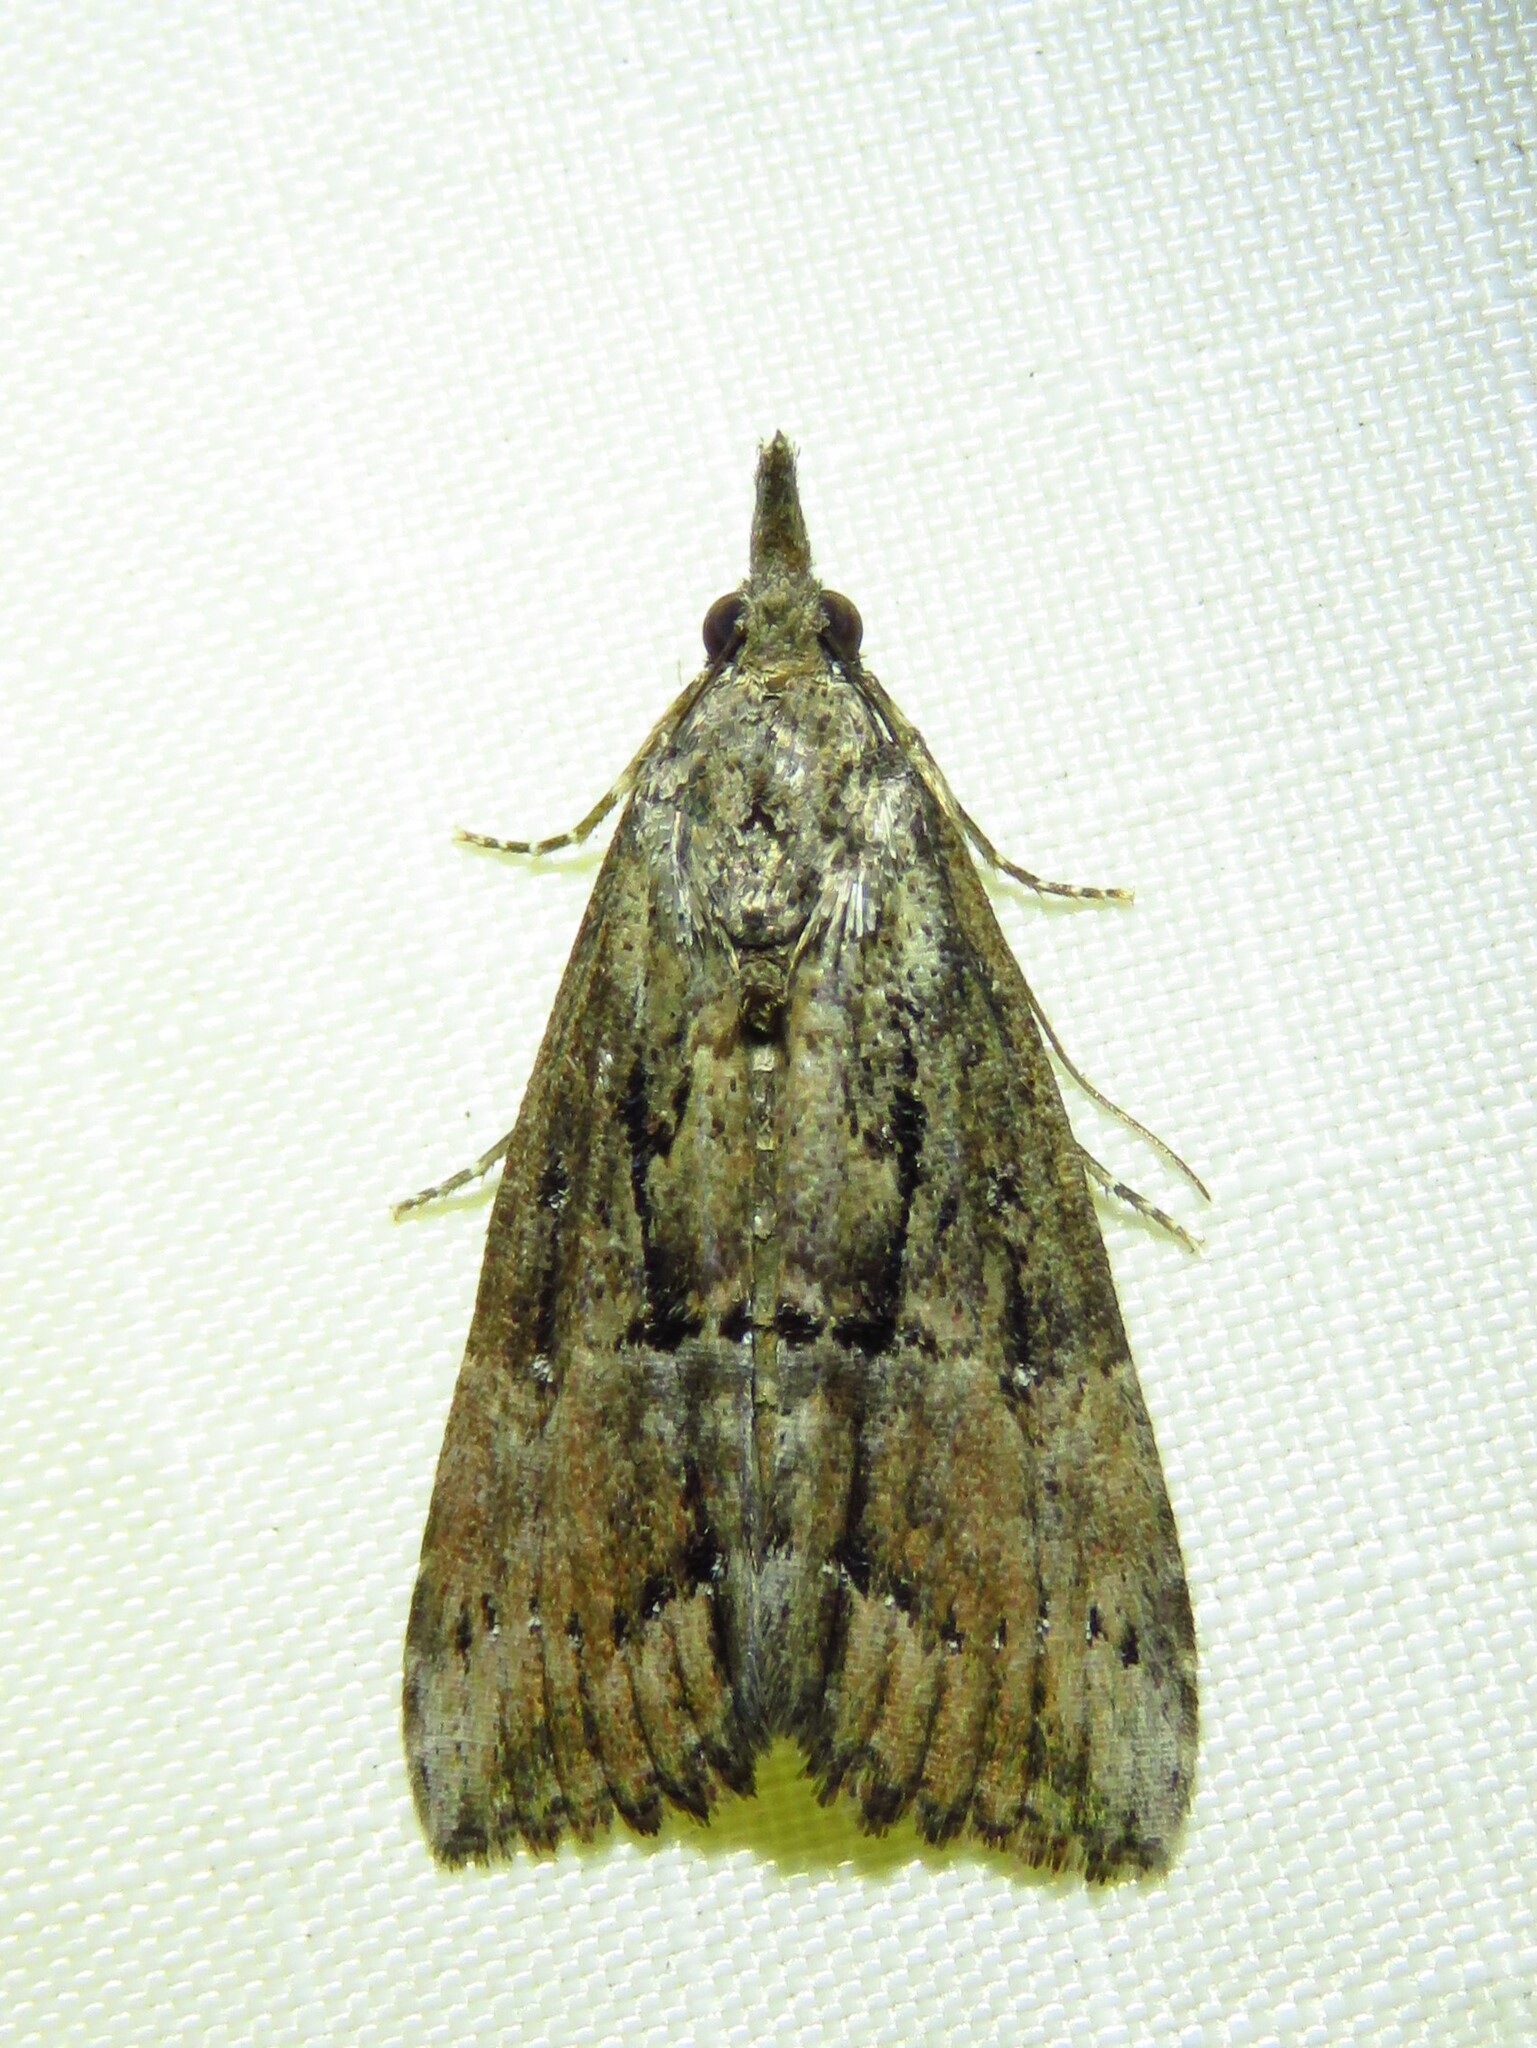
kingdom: Animalia
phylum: Arthropoda
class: Insecta
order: Lepidoptera
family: Erebidae
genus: Hypena
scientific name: Hypena scabra
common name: Green cloverworm
